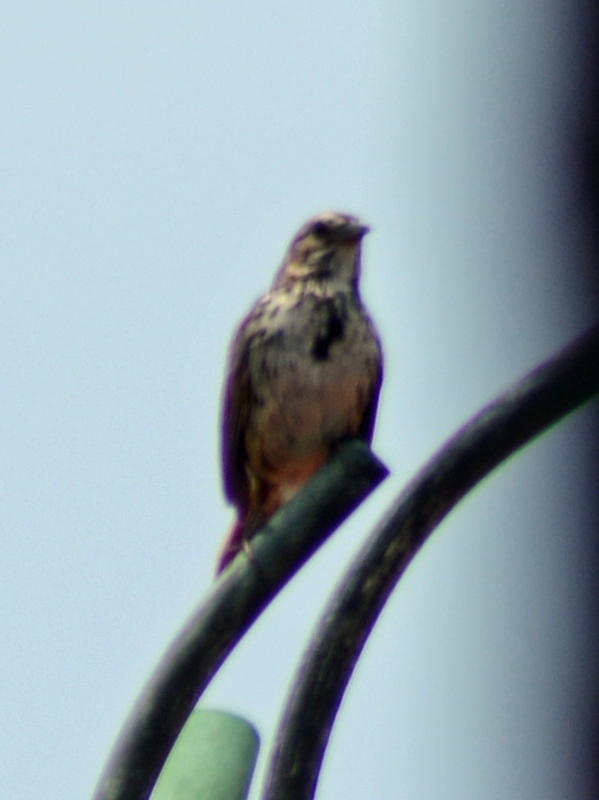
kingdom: Animalia
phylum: Chordata
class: Aves
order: Passeriformes
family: Passerellidae
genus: Melospiza
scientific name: Melospiza melodia
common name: Song sparrow
